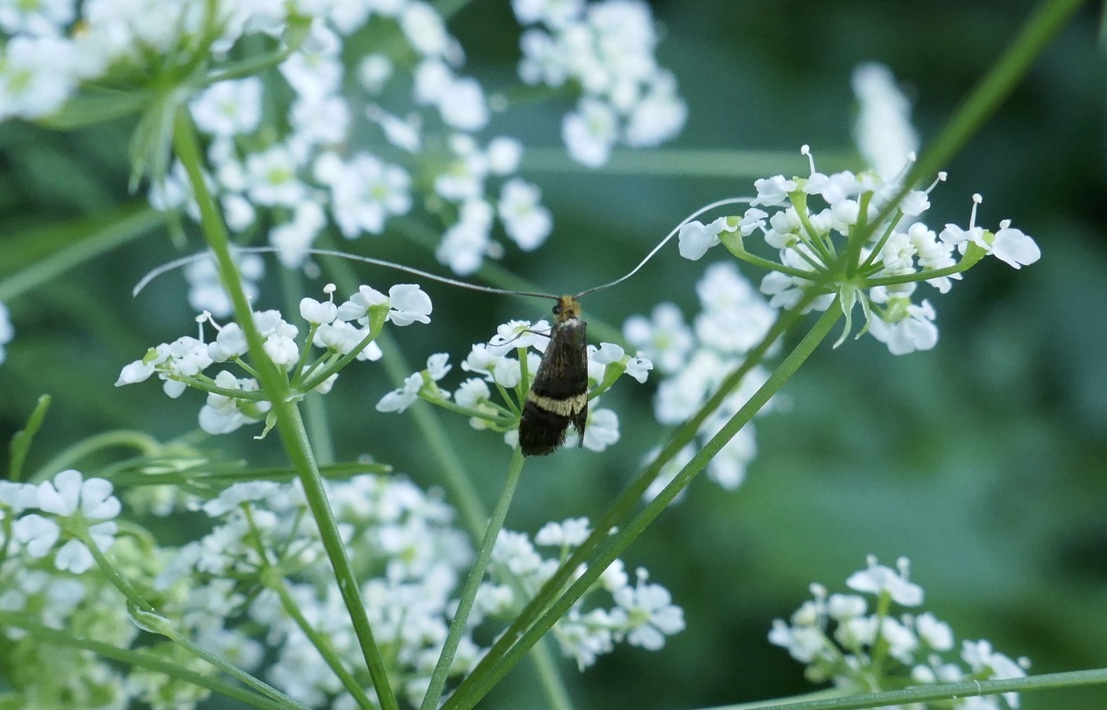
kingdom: Animalia
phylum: Arthropoda
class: Insecta
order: Lepidoptera
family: Adelidae
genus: Adela
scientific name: Adela croesella
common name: Small barred long-horn
